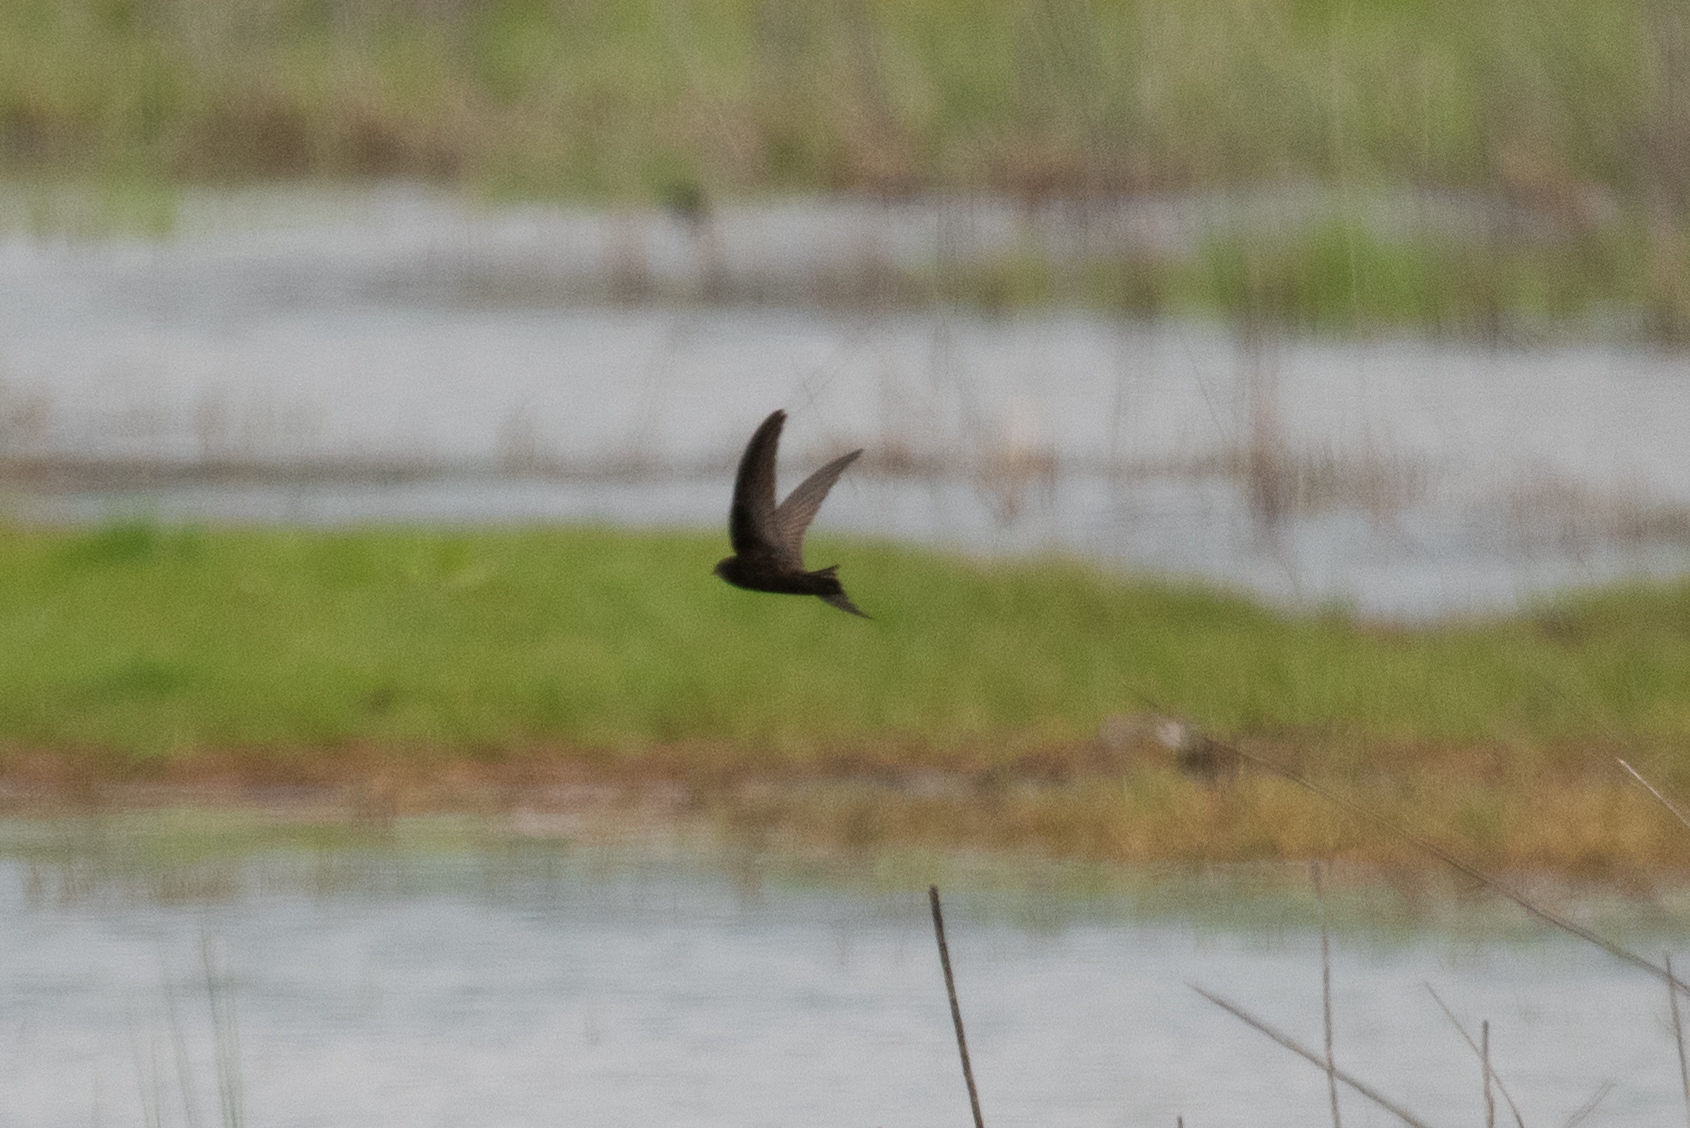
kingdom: Animalia
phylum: Chordata
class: Aves
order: Apodiformes
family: Apodidae
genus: Apus
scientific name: Apus apus
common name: Common swift
